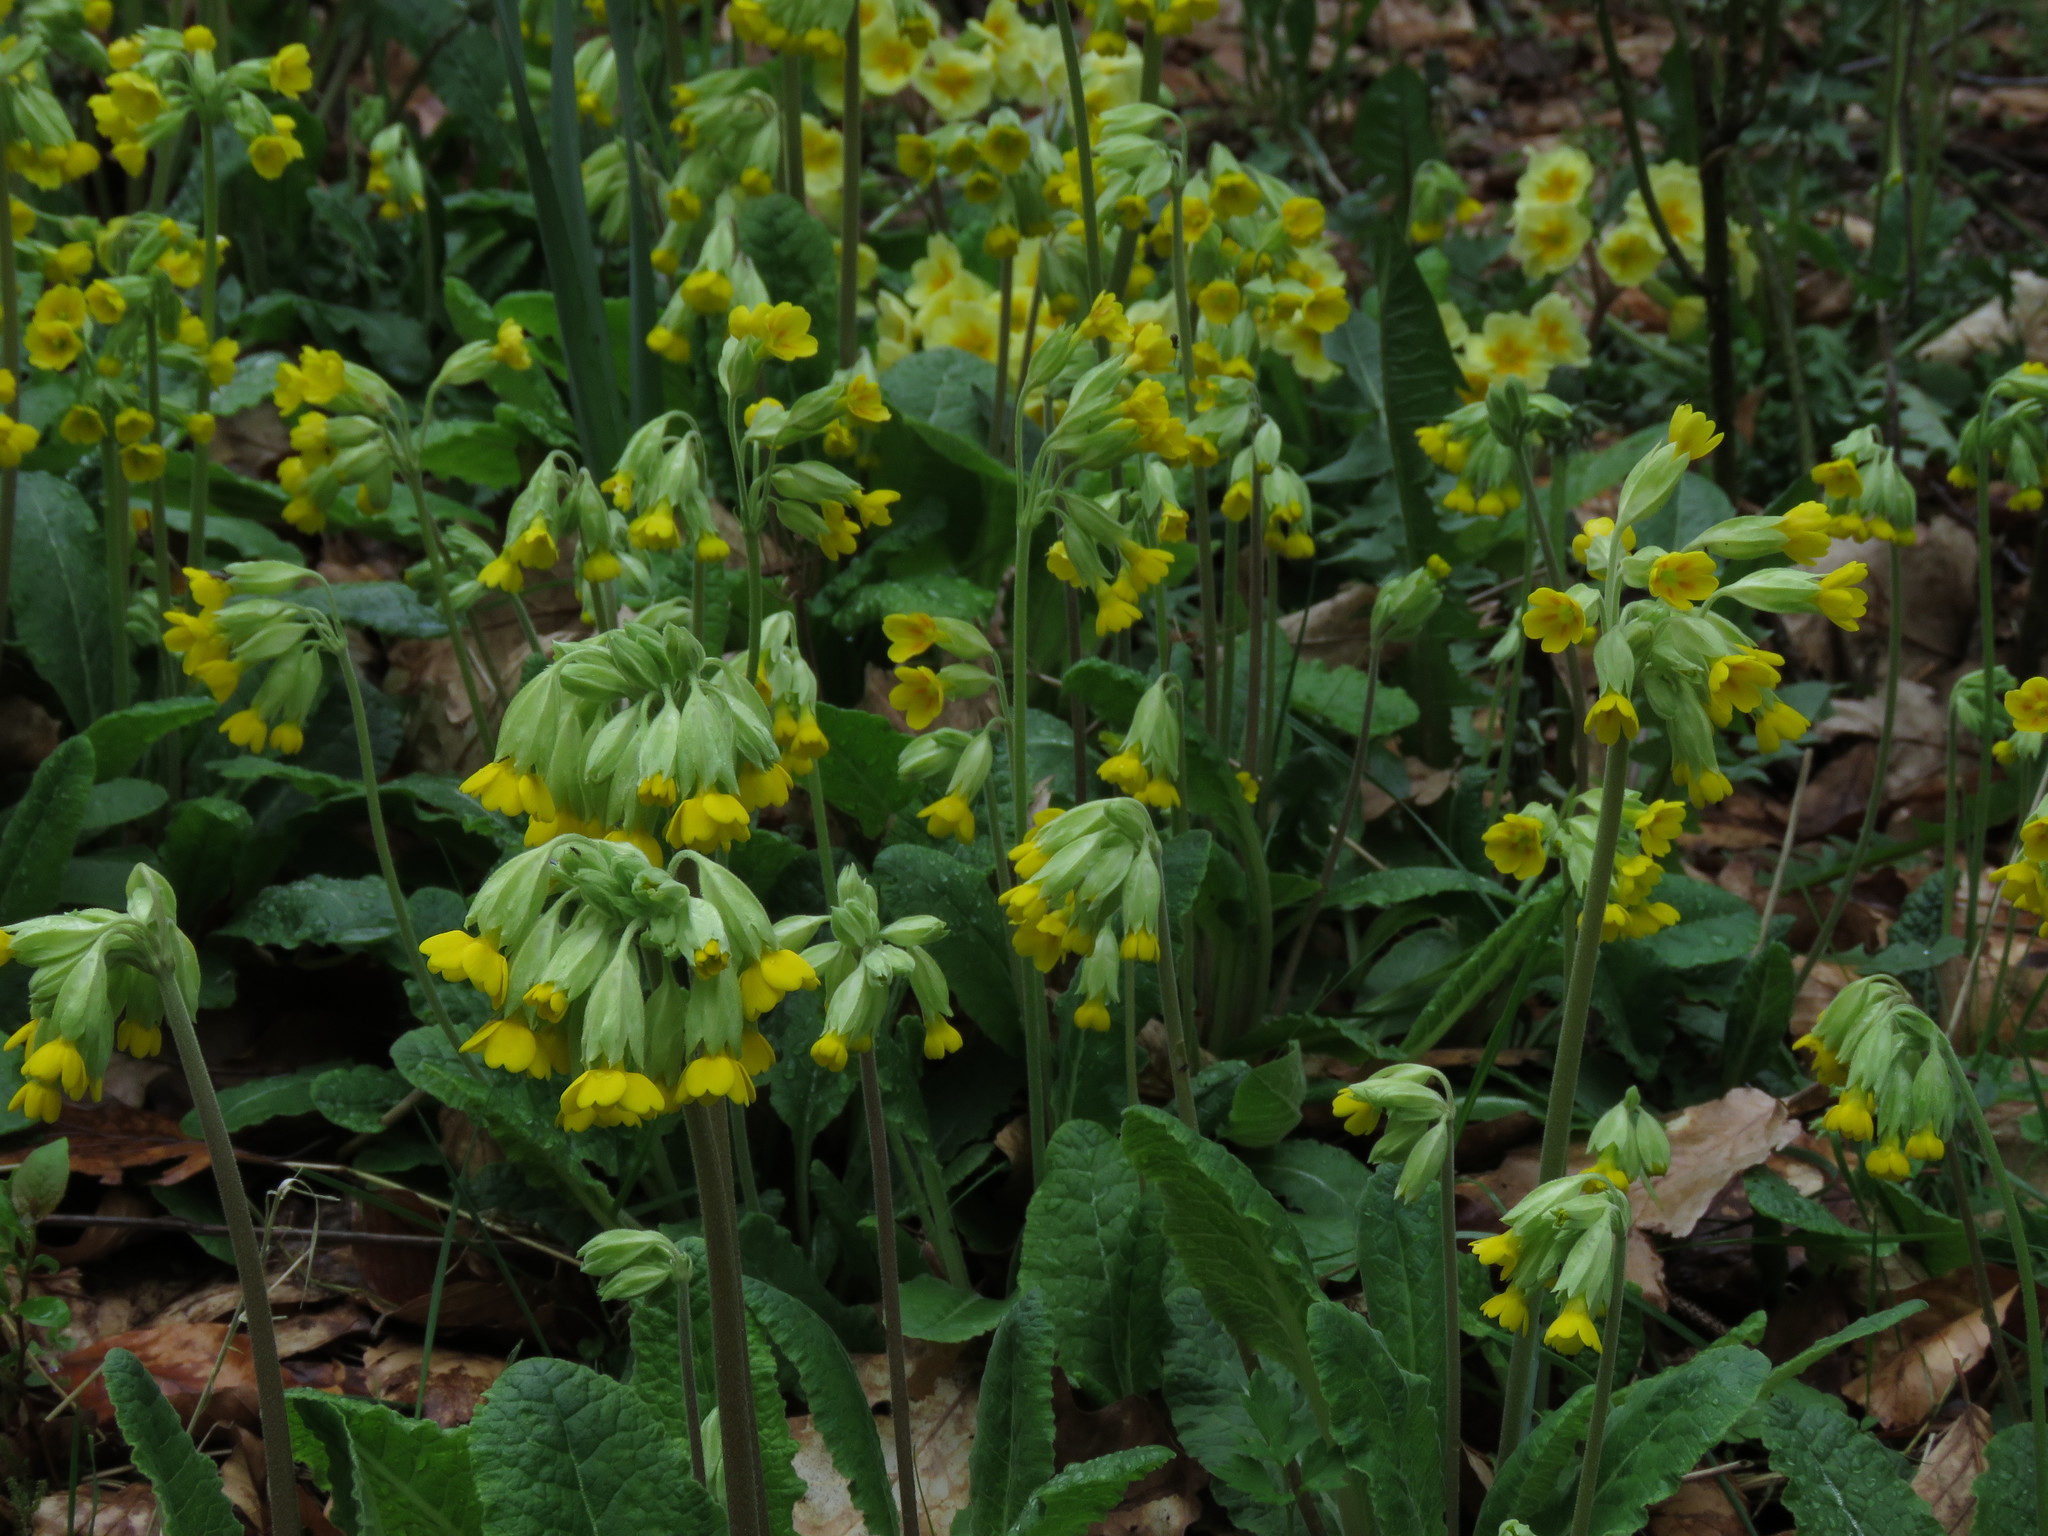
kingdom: Plantae
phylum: Tracheophyta
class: Magnoliopsida
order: Ericales
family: Primulaceae
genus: Primula
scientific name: Primula veris
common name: Cowslip
